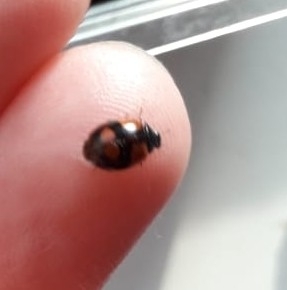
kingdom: Animalia
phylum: Arthropoda
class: Insecta
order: Coleoptera
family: Coccinellidae
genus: Adalia
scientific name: Adalia bipunctata
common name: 2-spot ladybird
